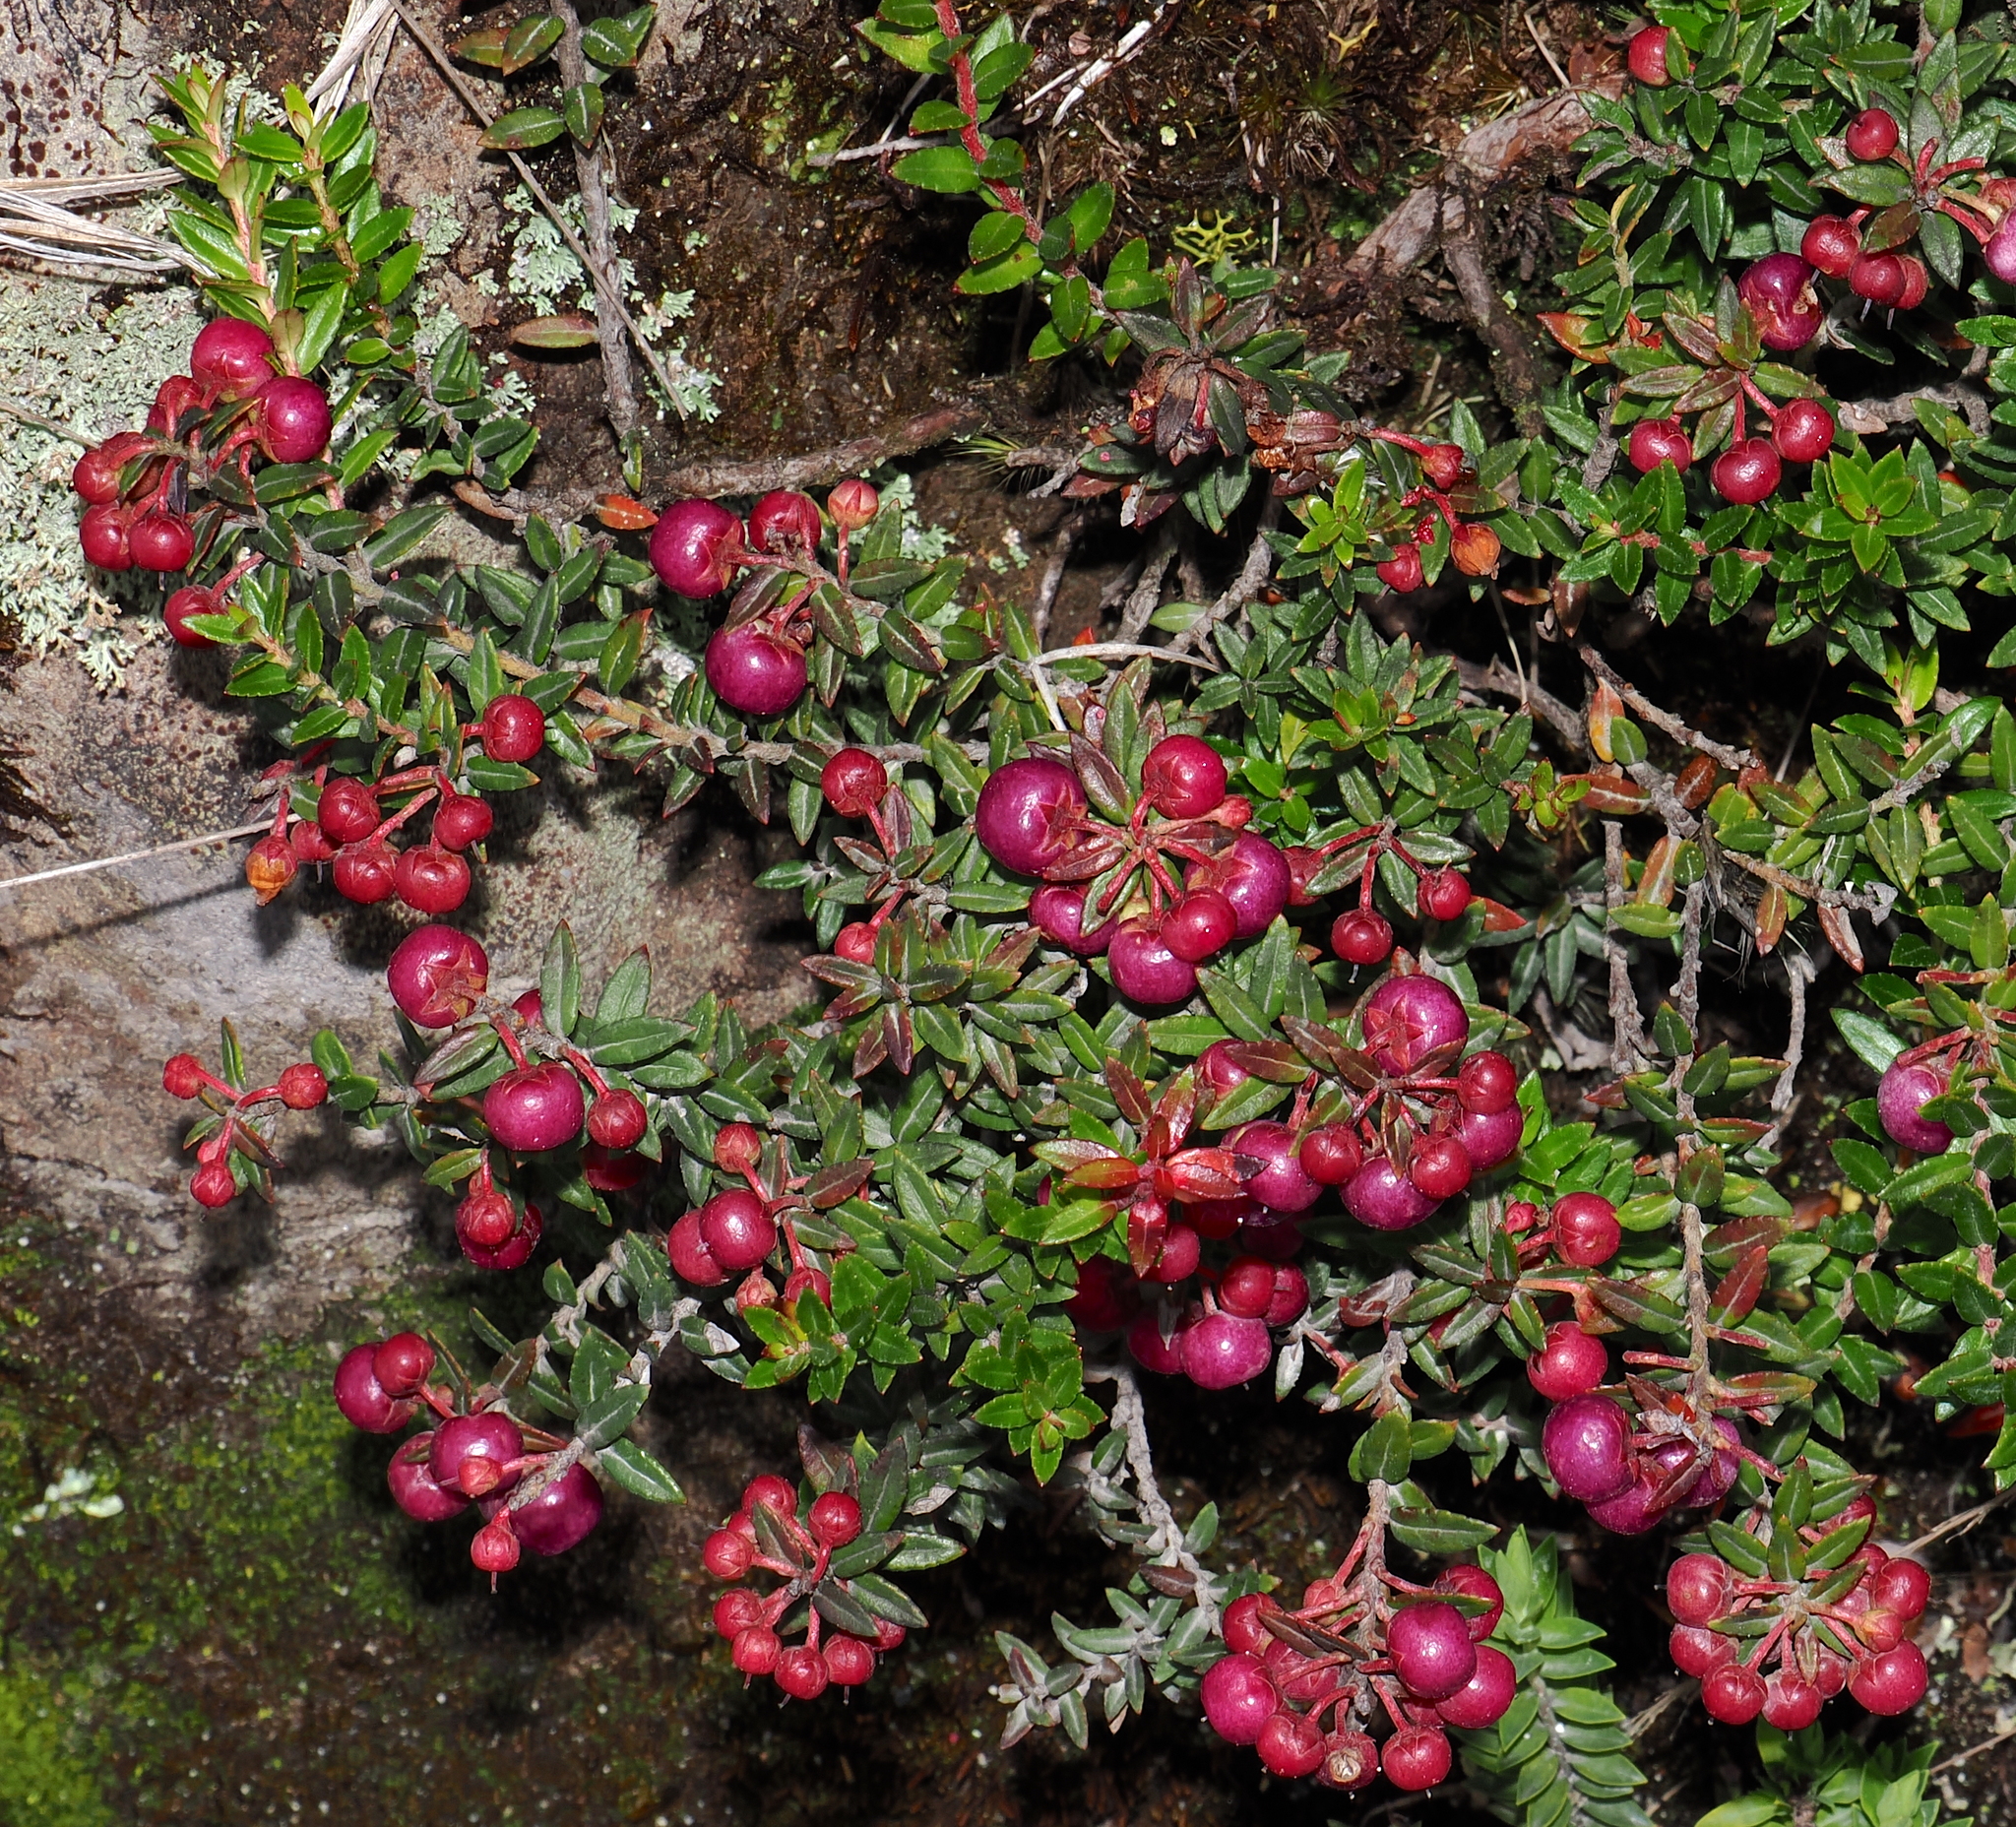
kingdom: Plantae
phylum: Tracheophyta
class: Magnoliopsida
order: Ericales
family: Ericaceae
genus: Gaultheria
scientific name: Gaultheria myrsinoides
